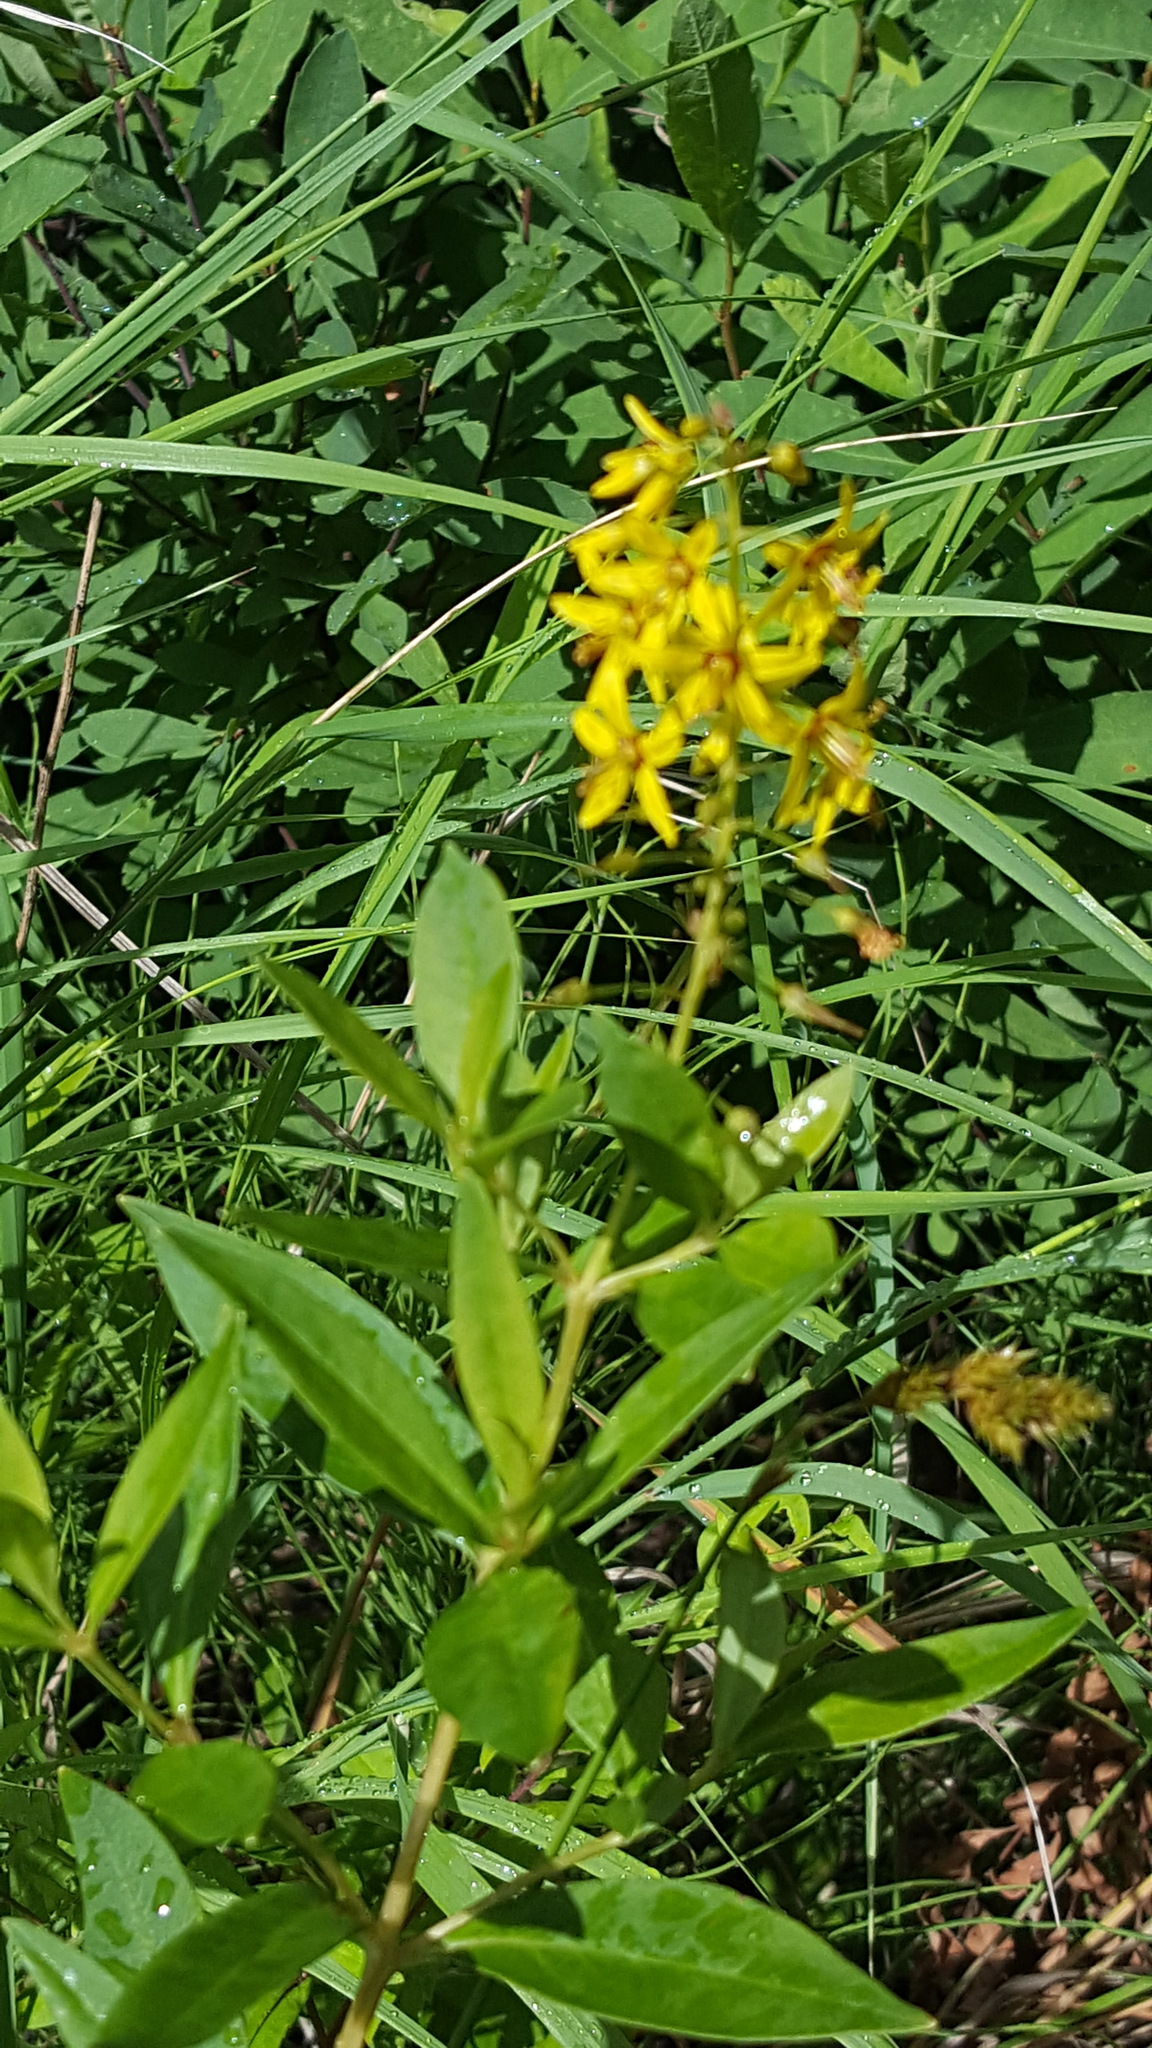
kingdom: Plantae
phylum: Tracheophyta
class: Magnoliopsida
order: Ericales
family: Primulaceae
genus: Lysimachia
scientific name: Lysimachia terrestris
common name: Lake loosestrife
